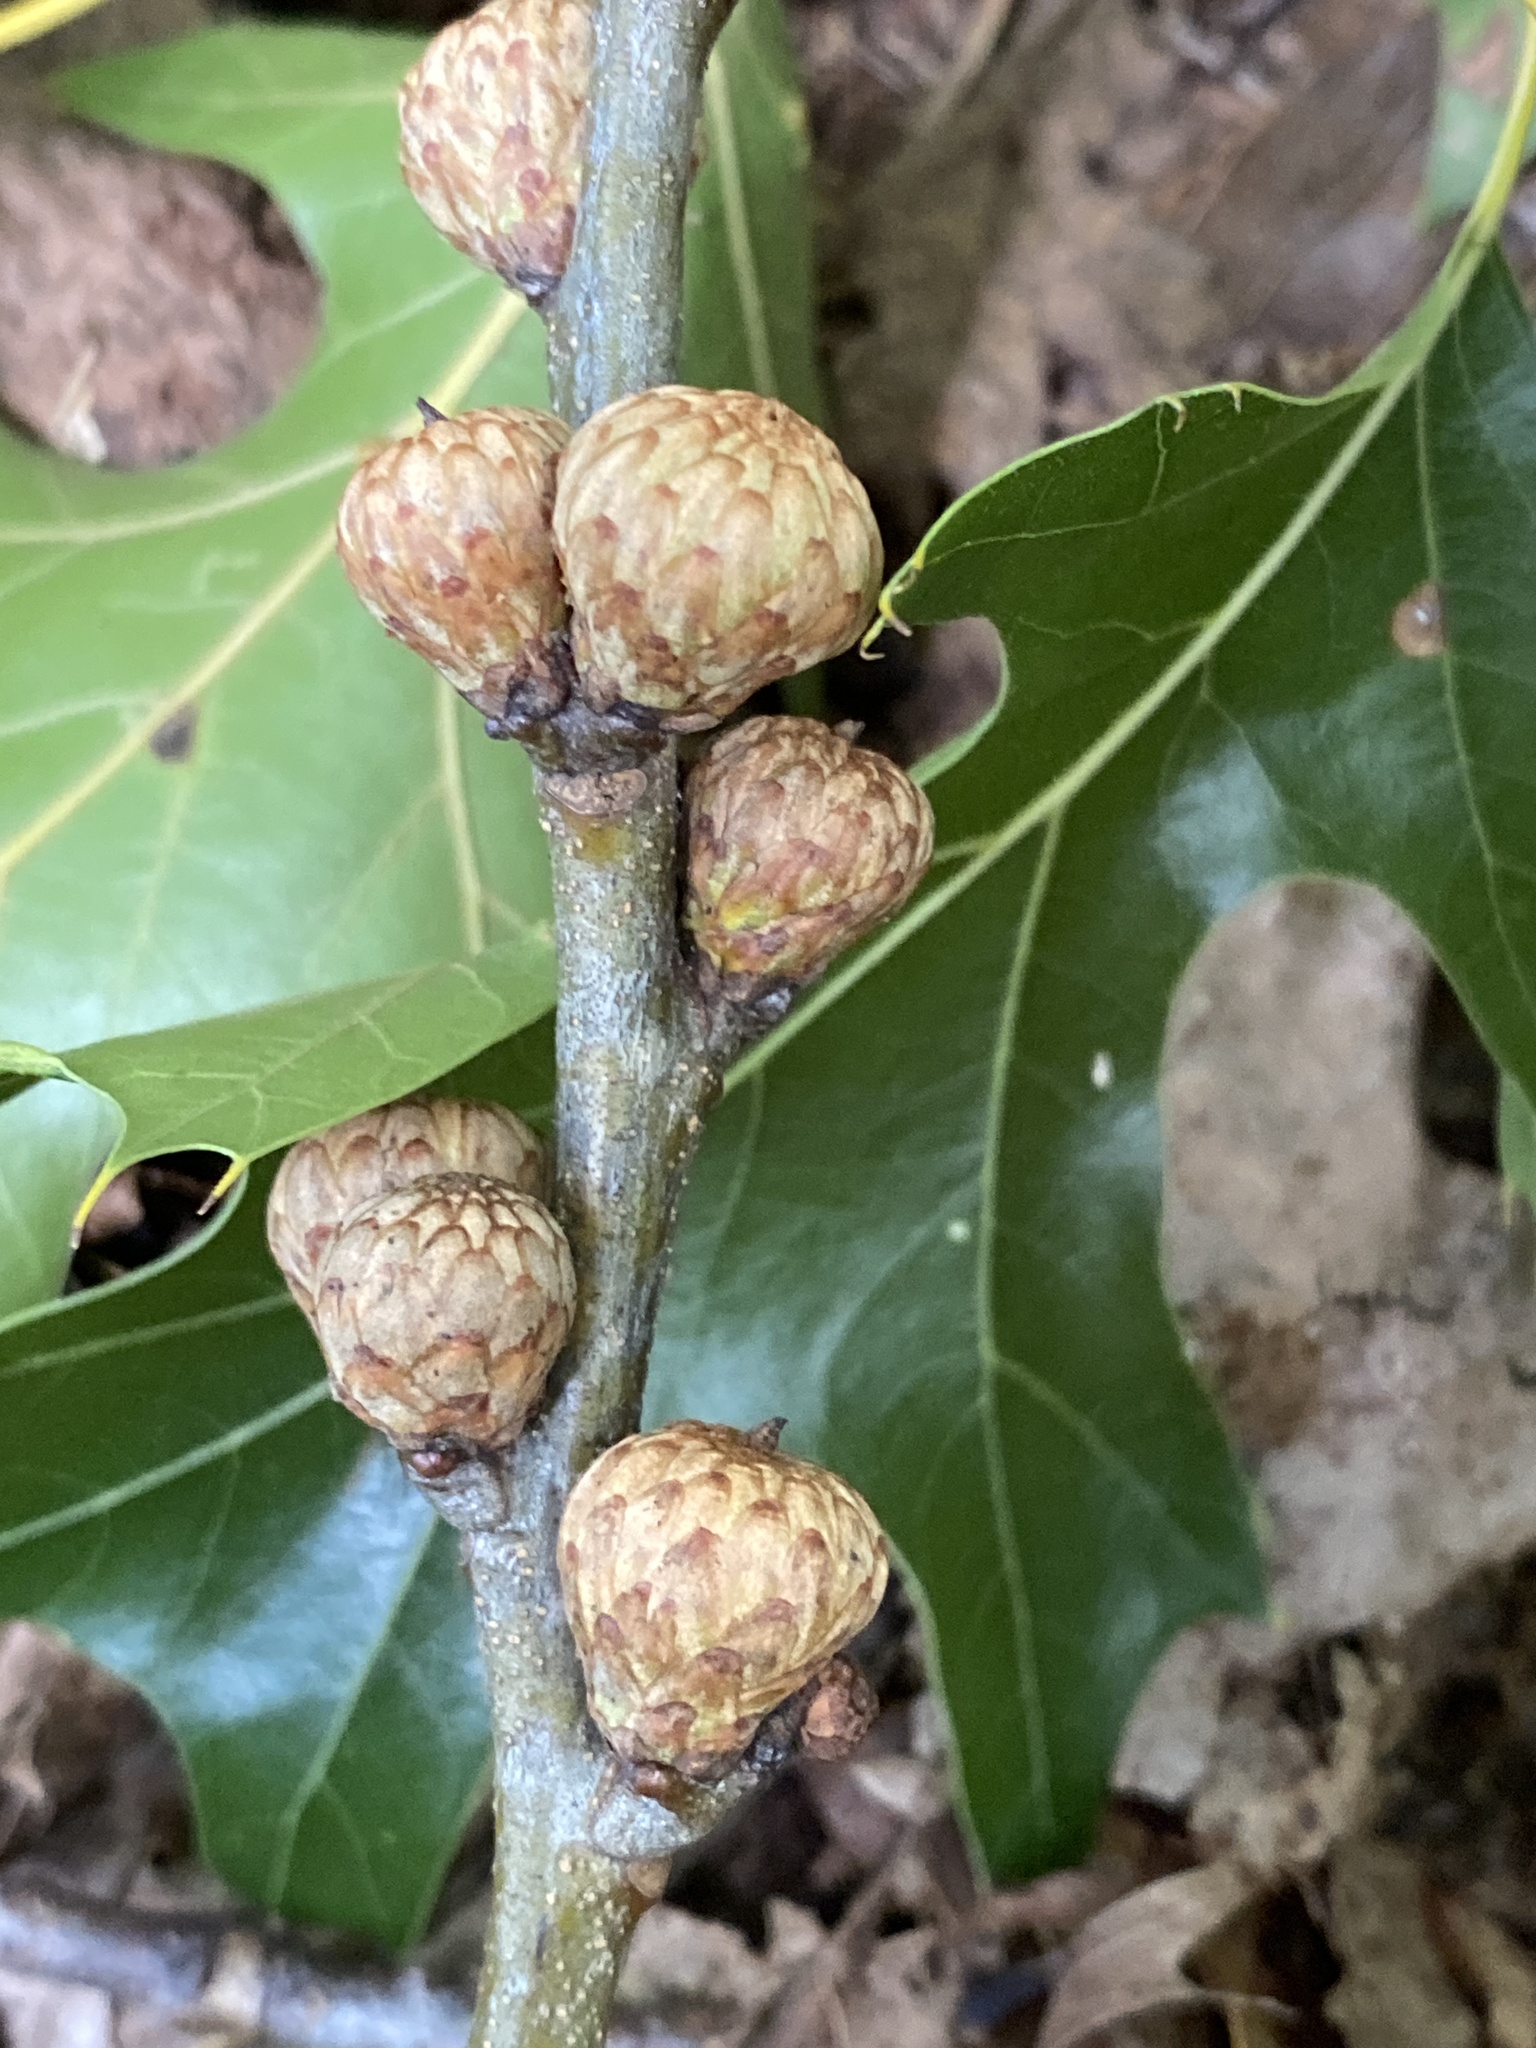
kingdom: Plantae
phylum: Tracheophyta
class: Magnoliopsida
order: Fagales
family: Fagaceae
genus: Quercus
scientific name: Quercus coccinea
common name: Scarlet oak
